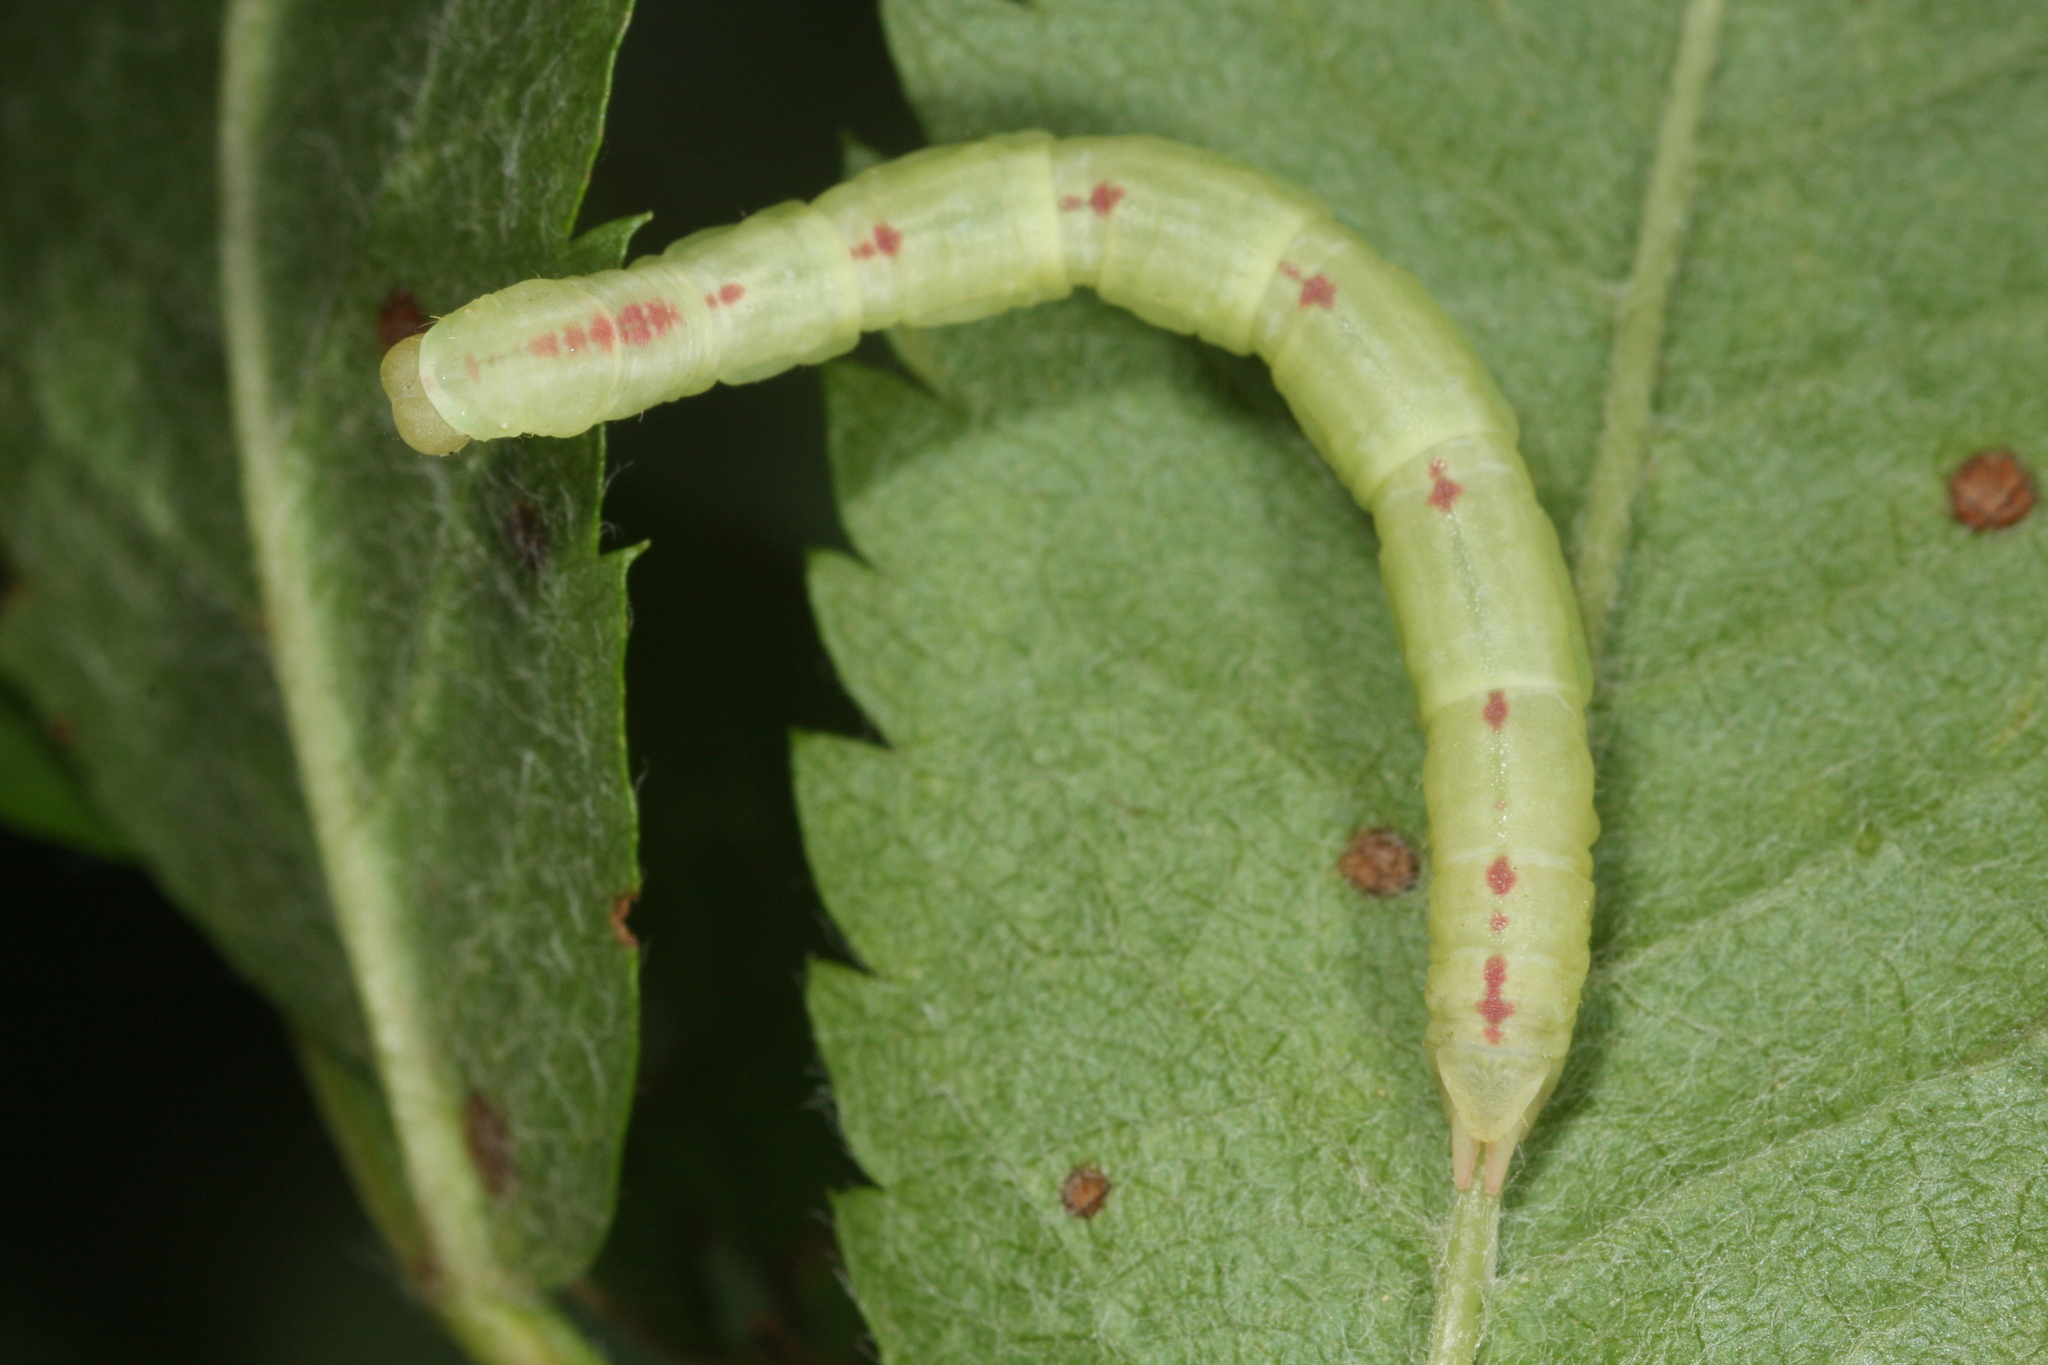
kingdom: Animalia
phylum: Arthropoda
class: Insecta
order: Lepidoptera
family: Geometridae
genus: Chloroclysta
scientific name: Chloroclysta siterata
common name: Red-green carpet
